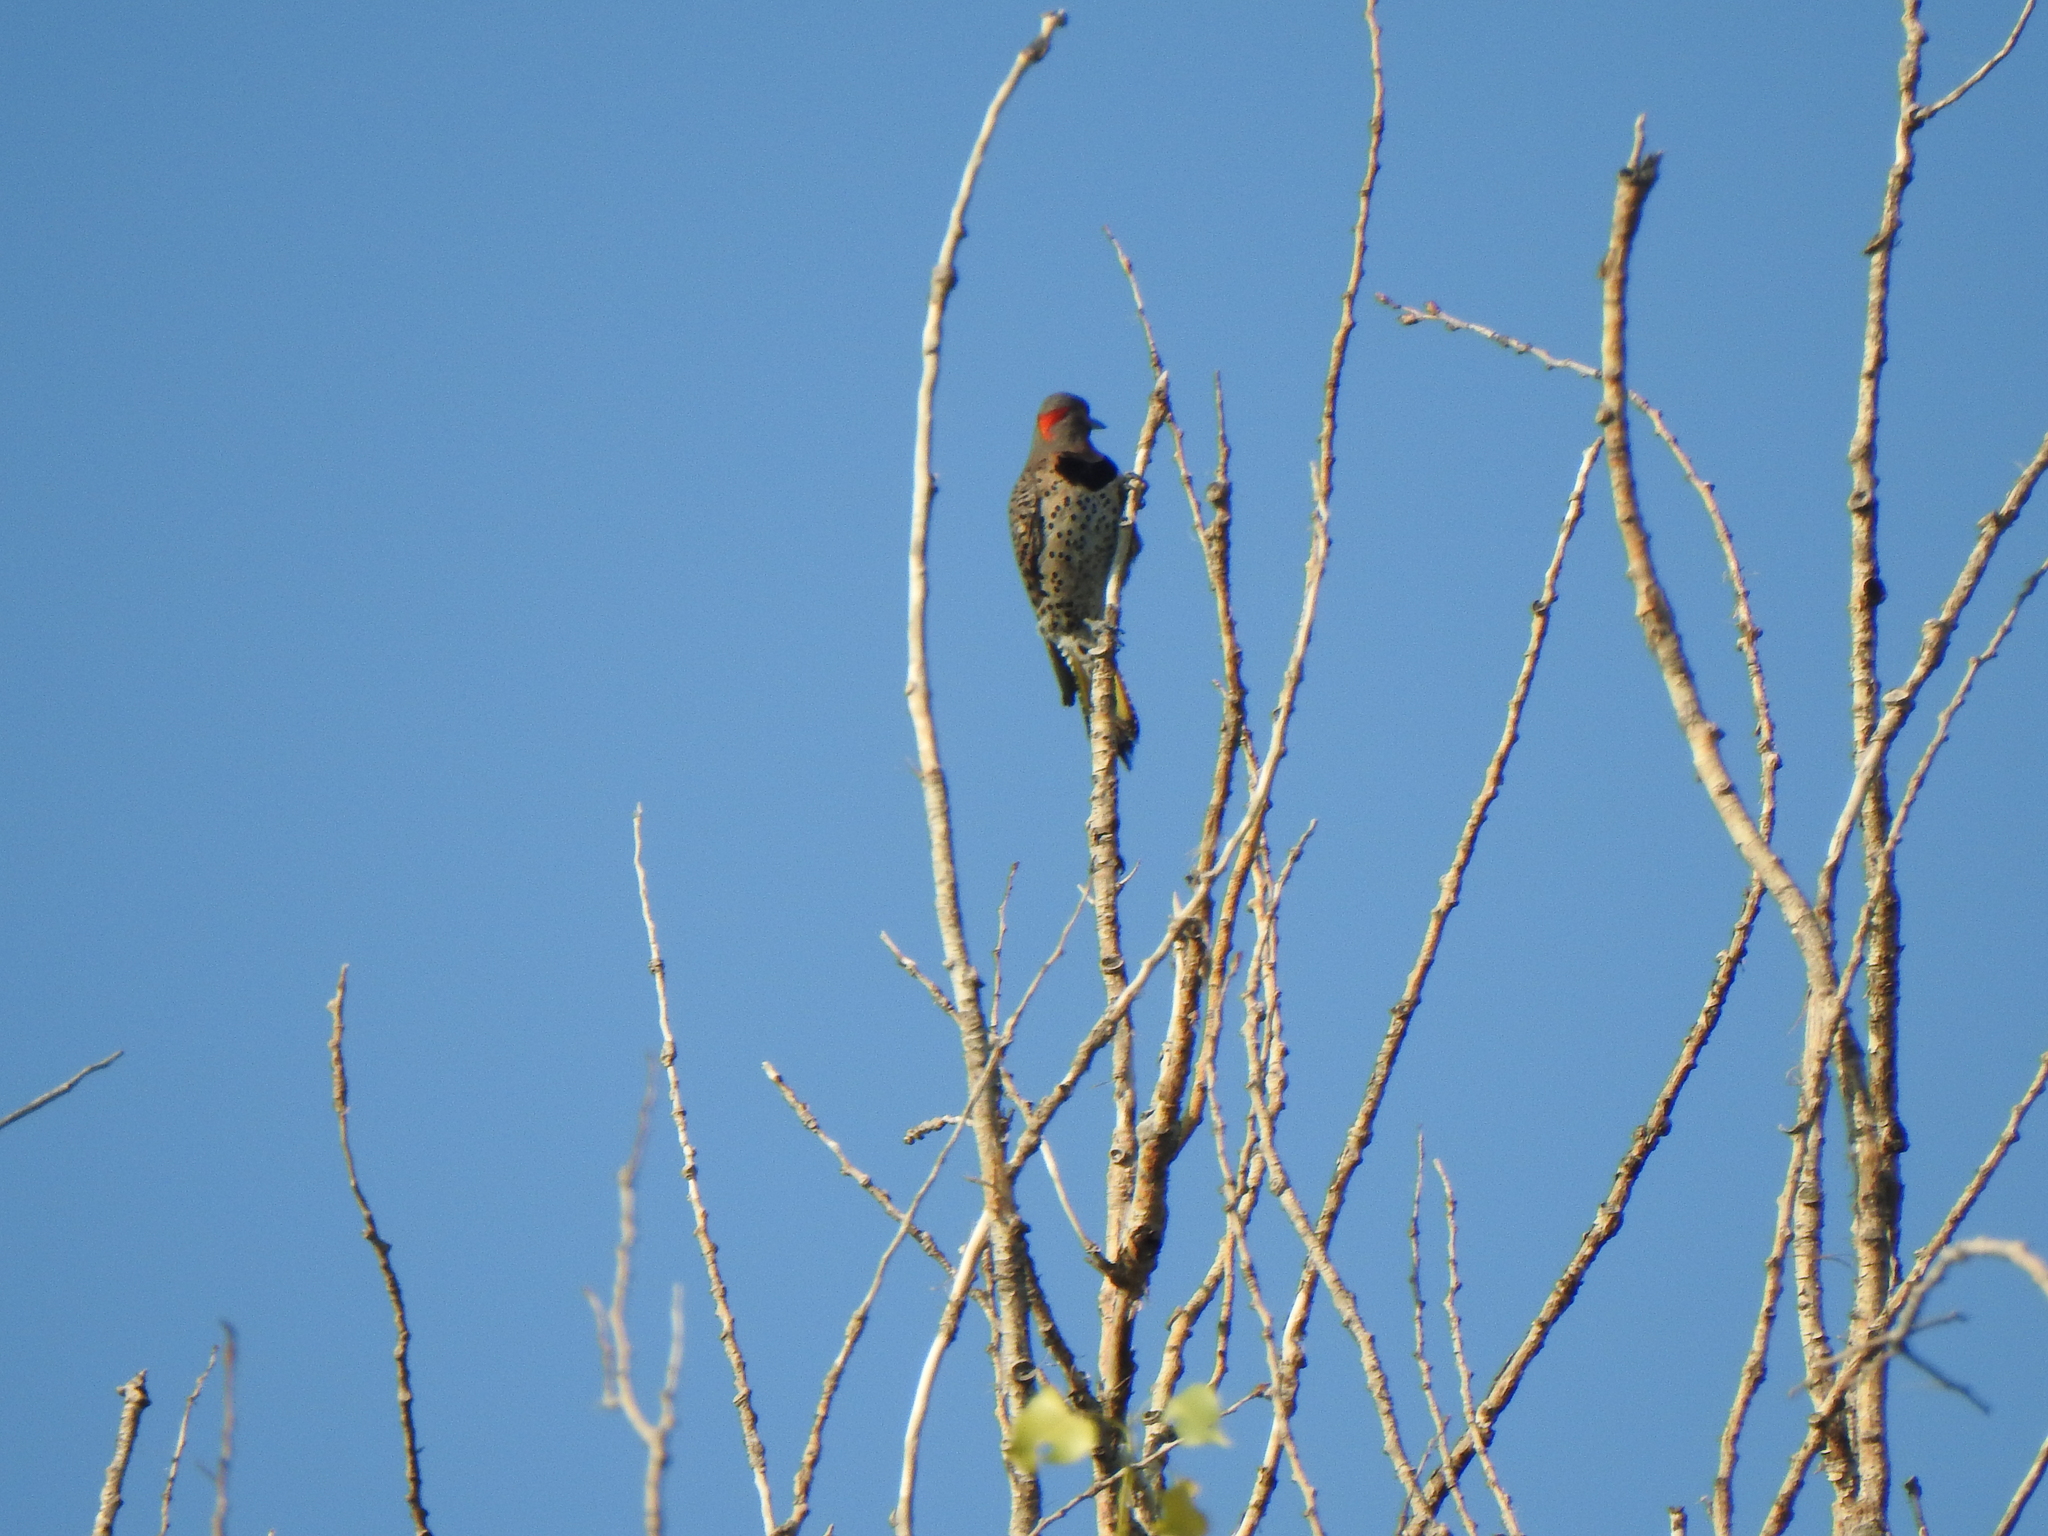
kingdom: Animalia
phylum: Chordata
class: Aves
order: Piciformes
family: Picidae
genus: Colaptes
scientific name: Colaptes auratus
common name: Northern flicker
